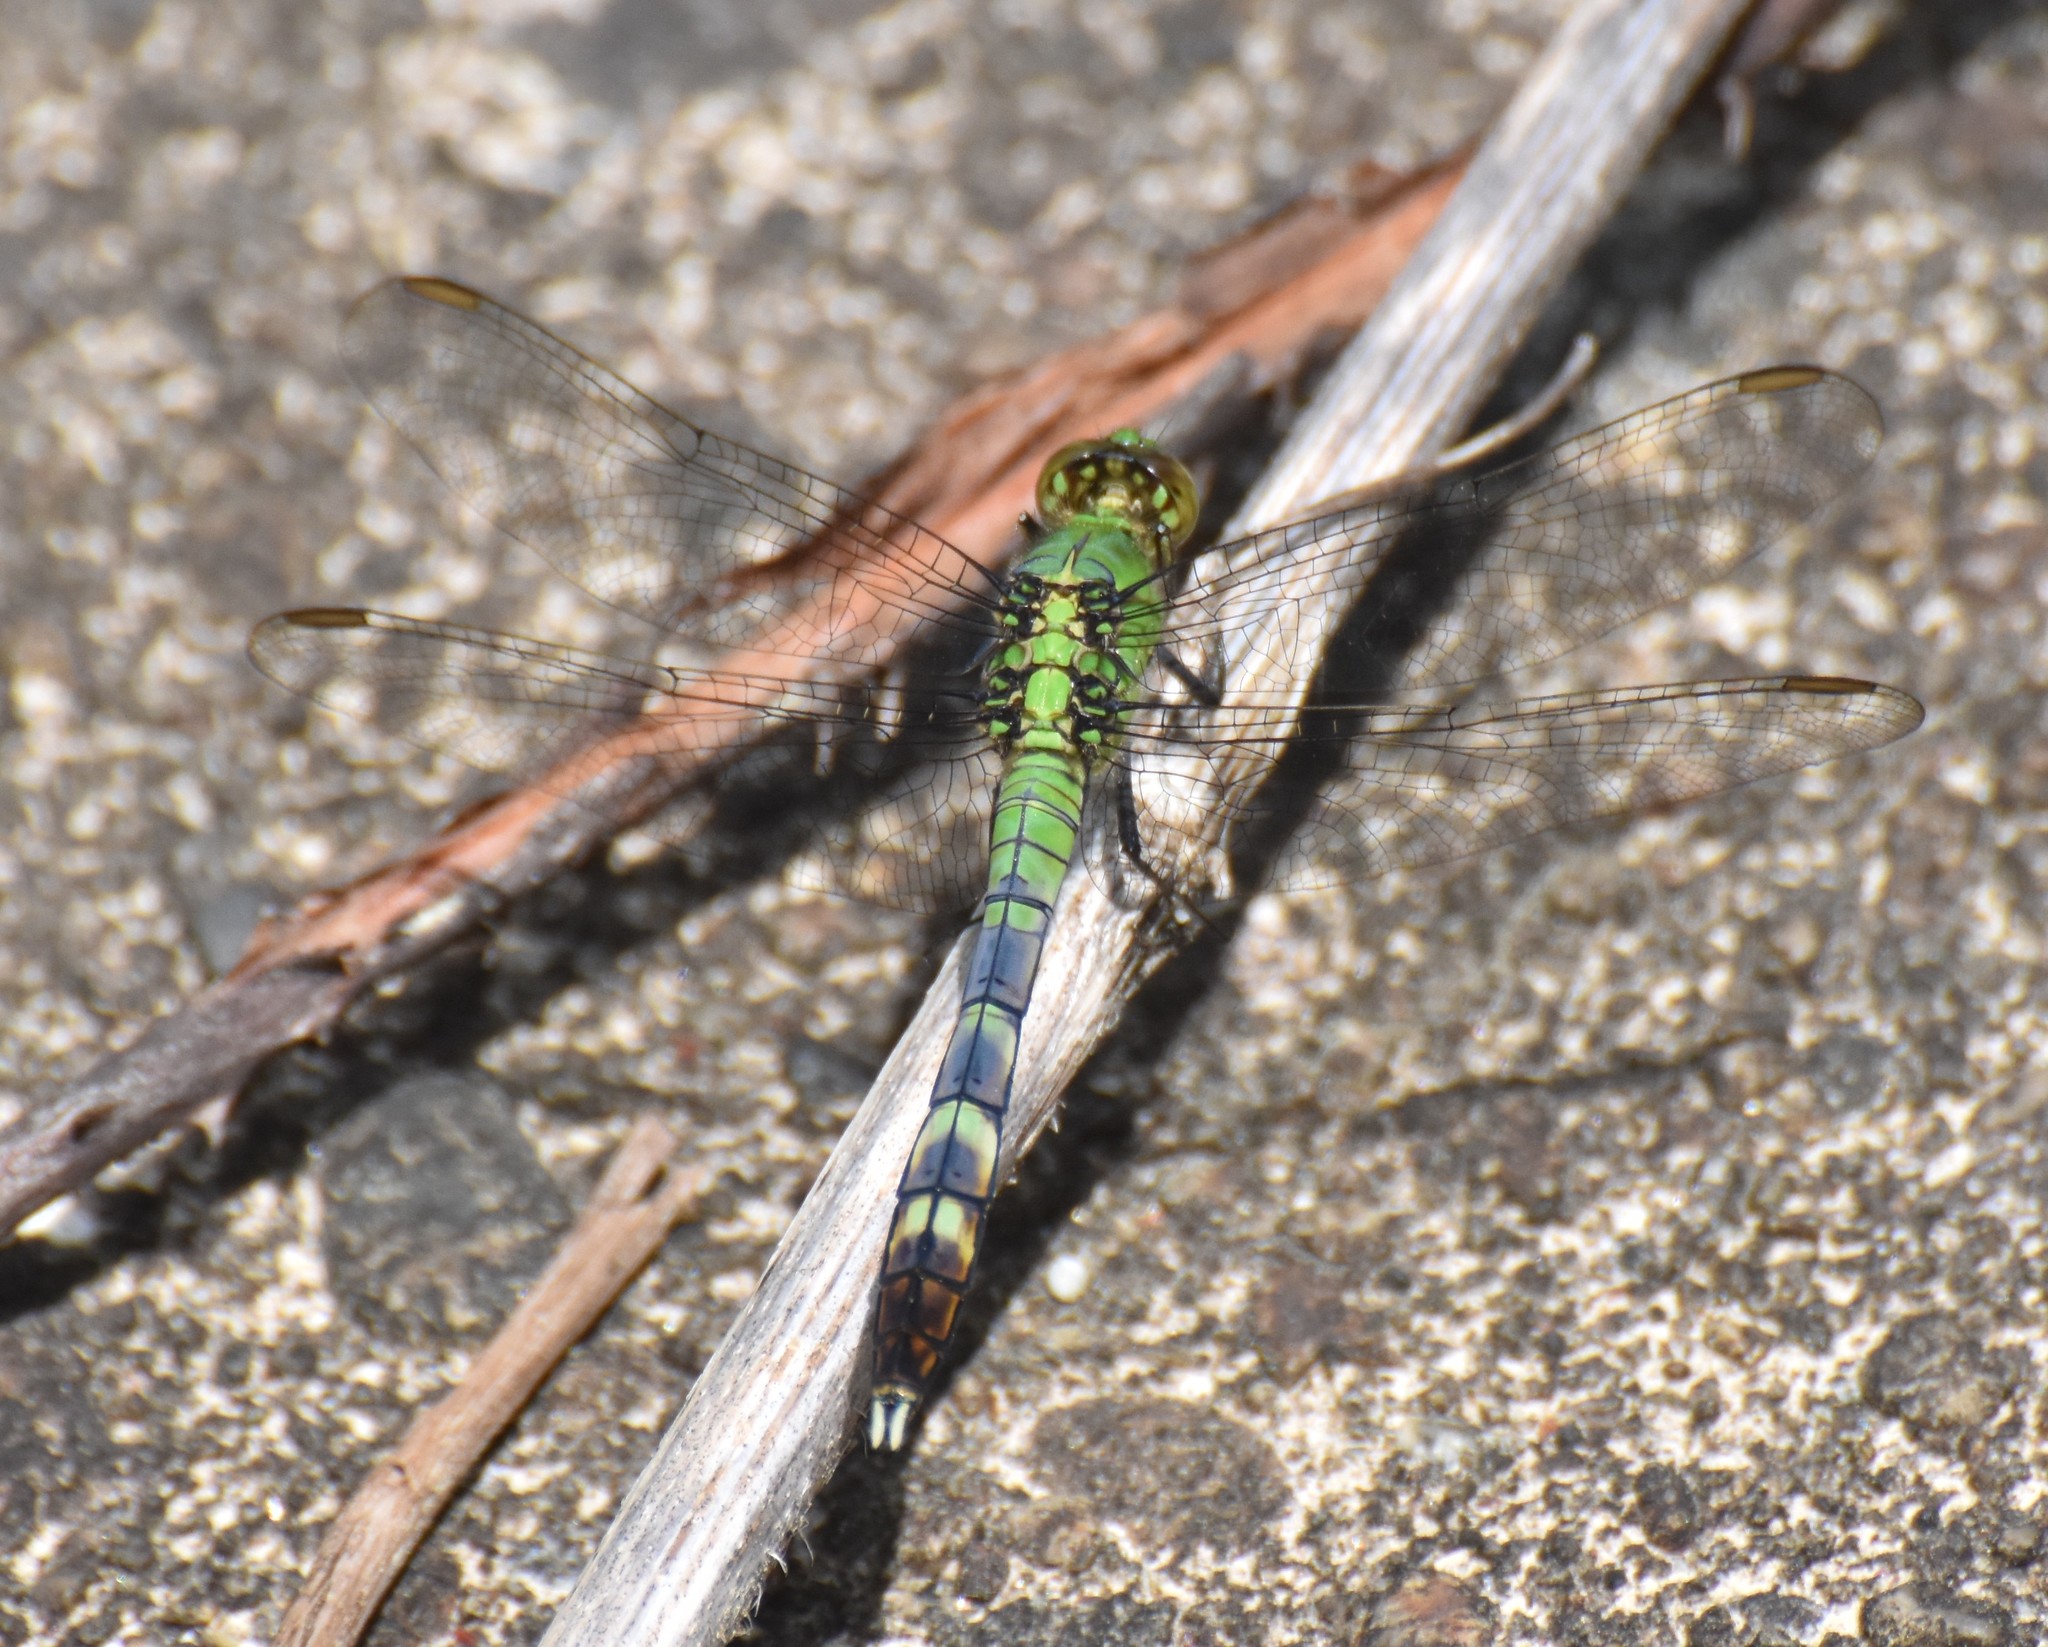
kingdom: Animalia
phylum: Arthropoda
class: Insecta
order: Odonata
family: Libellulidae
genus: Erythemis
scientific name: Erythemis simplicicollis
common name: Eastern pondhawk
